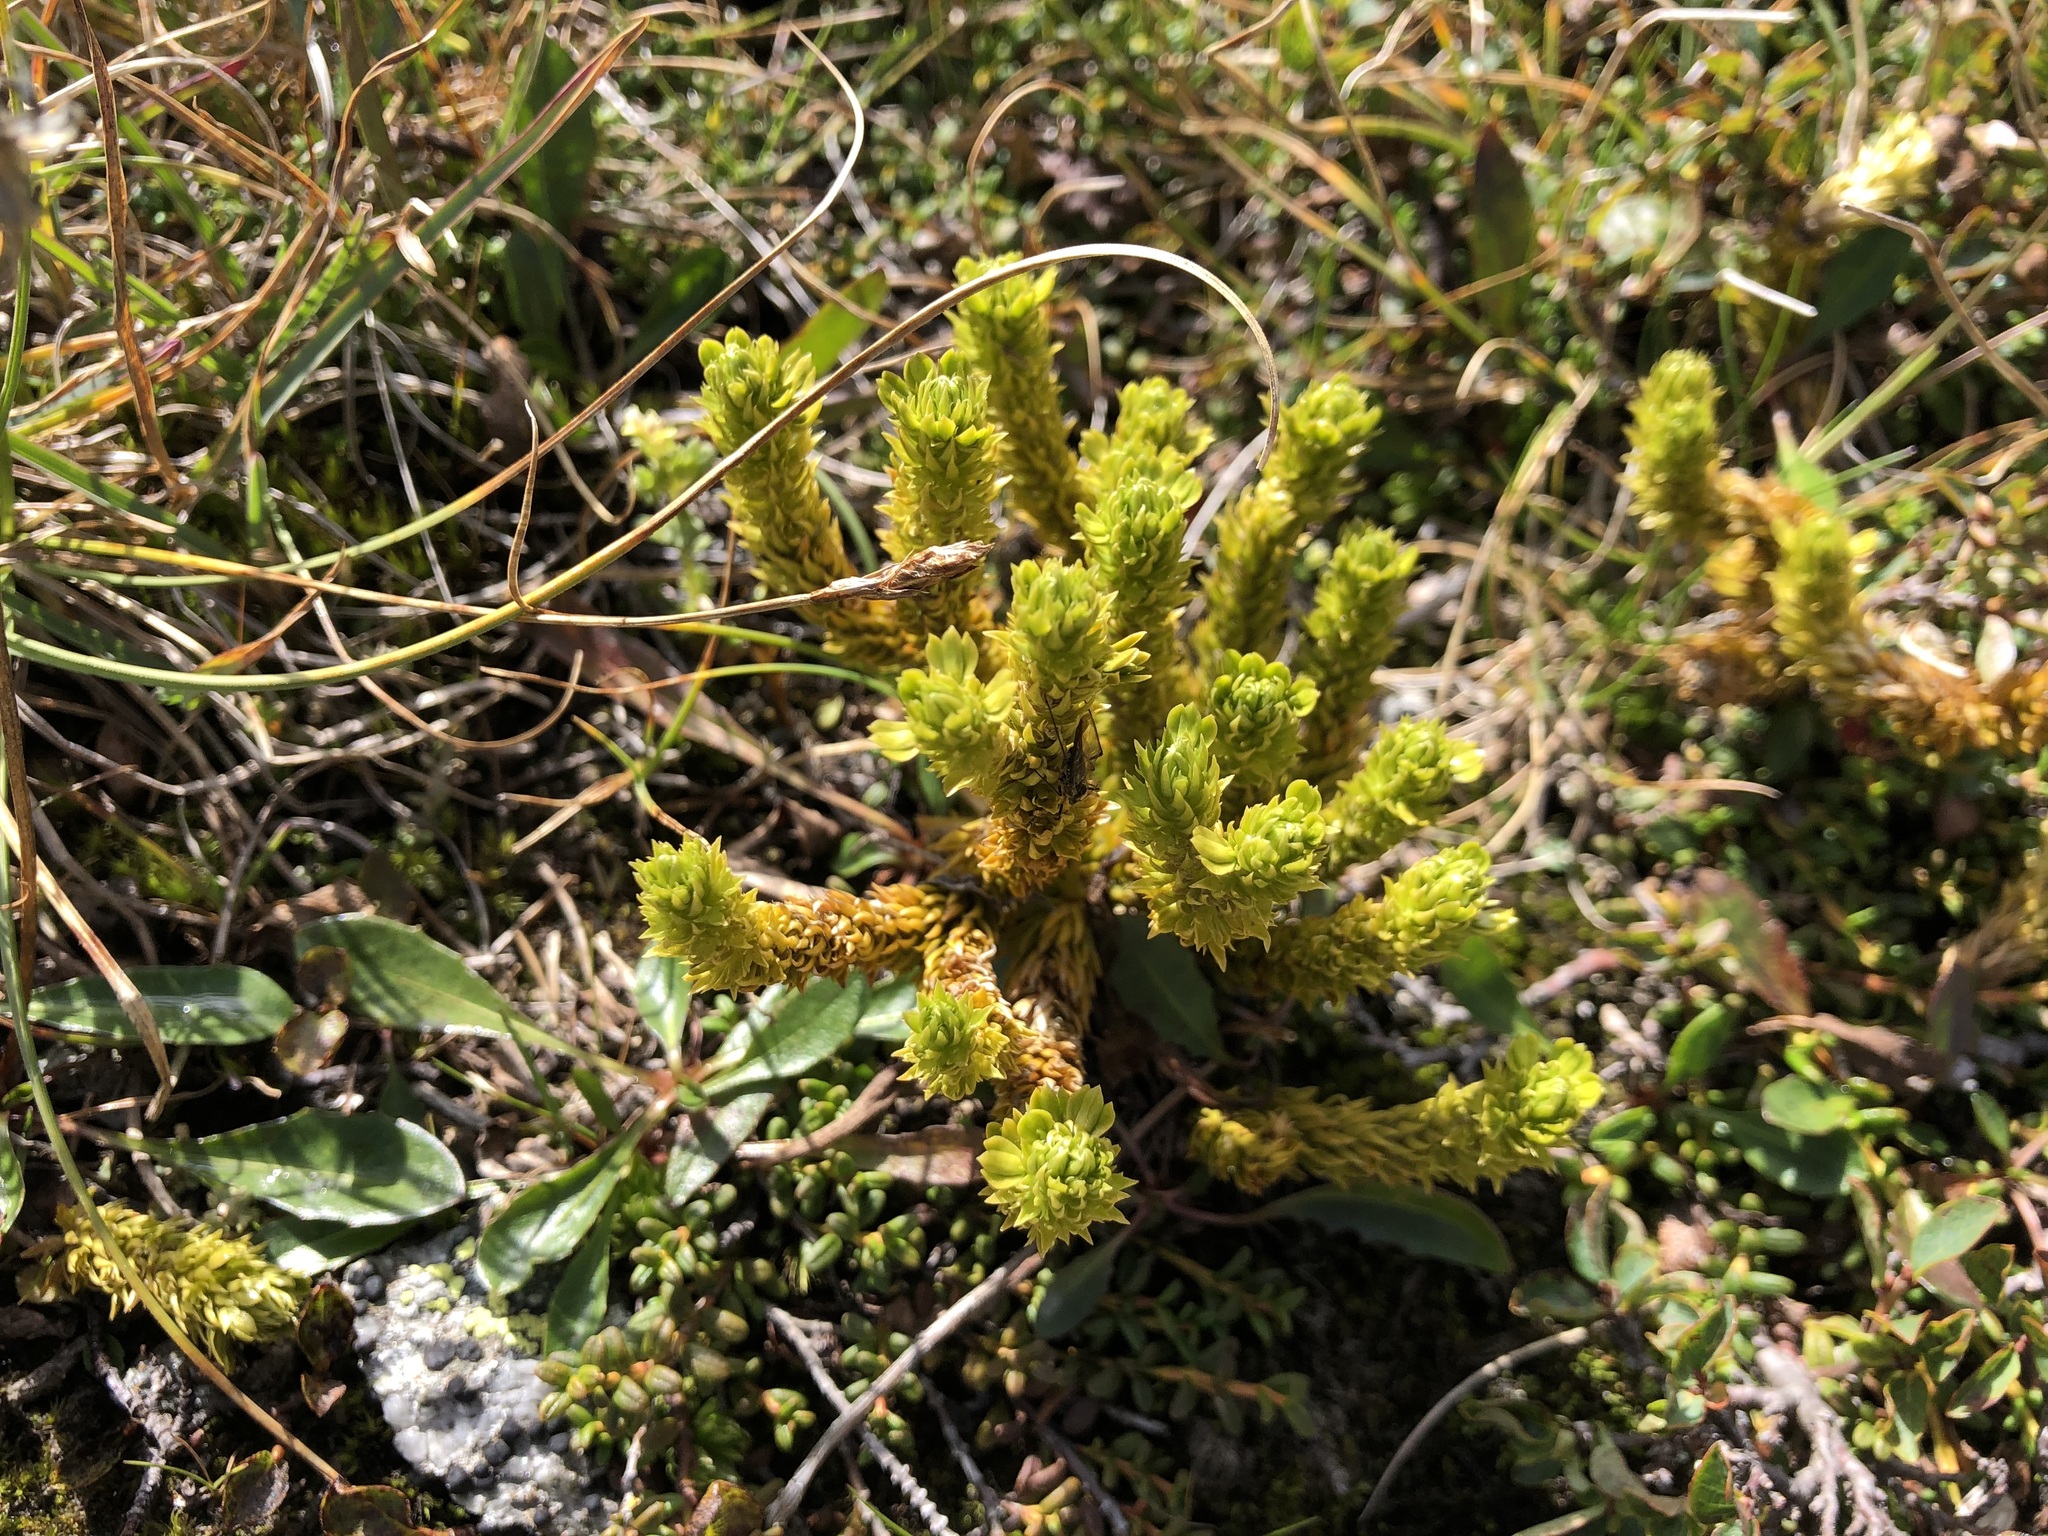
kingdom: Plantae
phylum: Tracheophyta
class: Lycopodiopsida
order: Lycopodiales
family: Lycopodiaceae
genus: Huperzia
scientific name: Huperzia selago
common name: Northern firmoss
